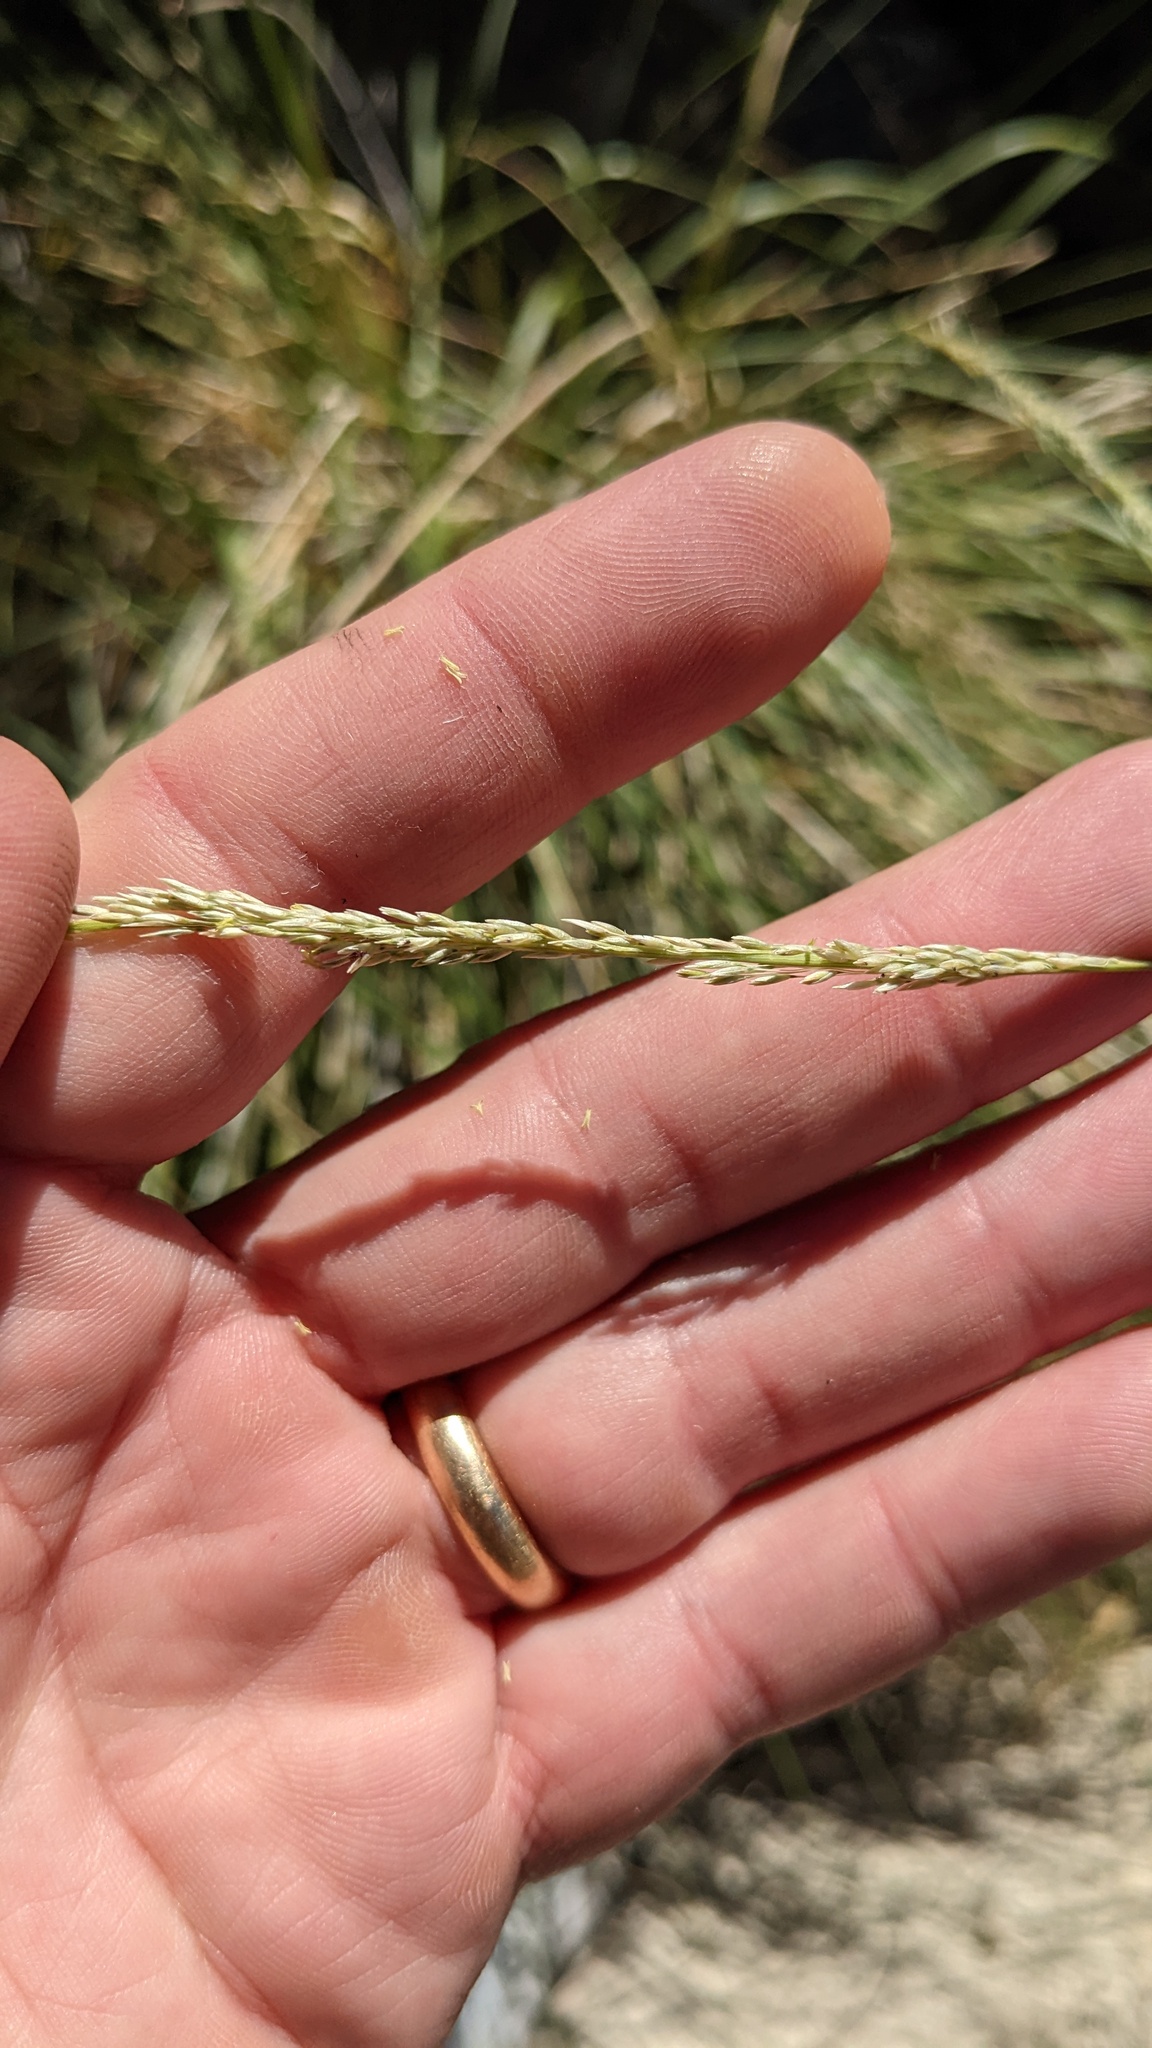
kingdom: Plantae
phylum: Tracheophyta
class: Liliopsida
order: Poales
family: Poaceae
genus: Muhlenbergia
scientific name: Muhlenbergia rigens
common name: Deer grass
